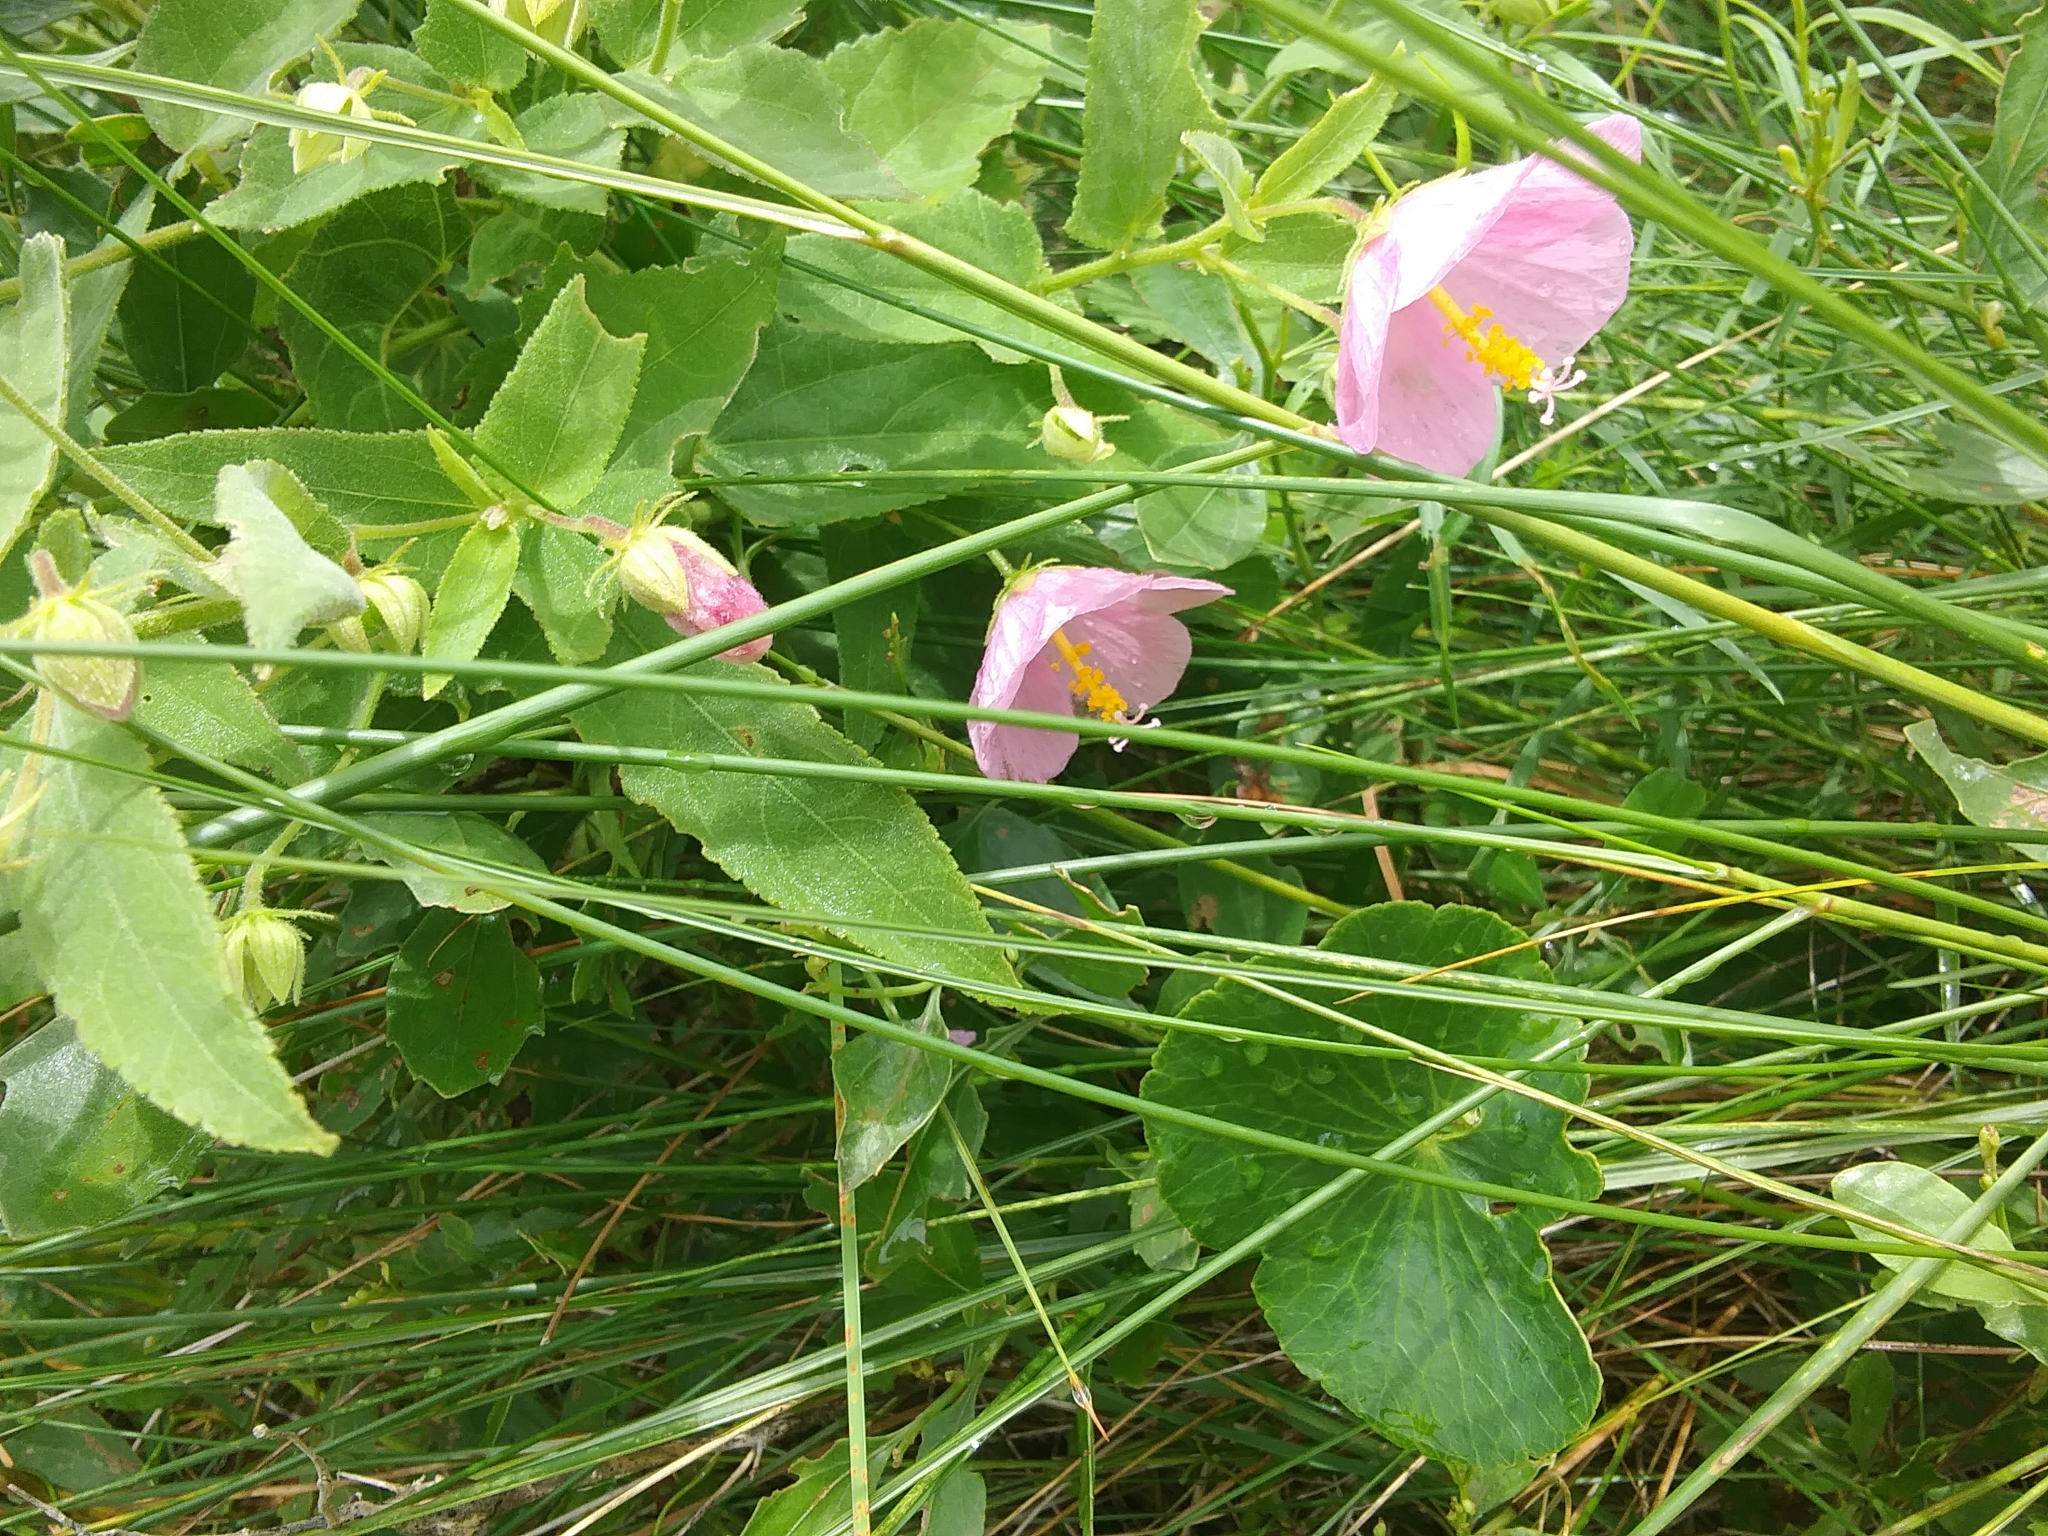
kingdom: Plantae
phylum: Tracheophyta
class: Magnoliopsida
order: Malvales
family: Malvaceae
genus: Kosteletzkya
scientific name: Kosteletzkya pentacarpos
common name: Virginia saltmarsh mallow
